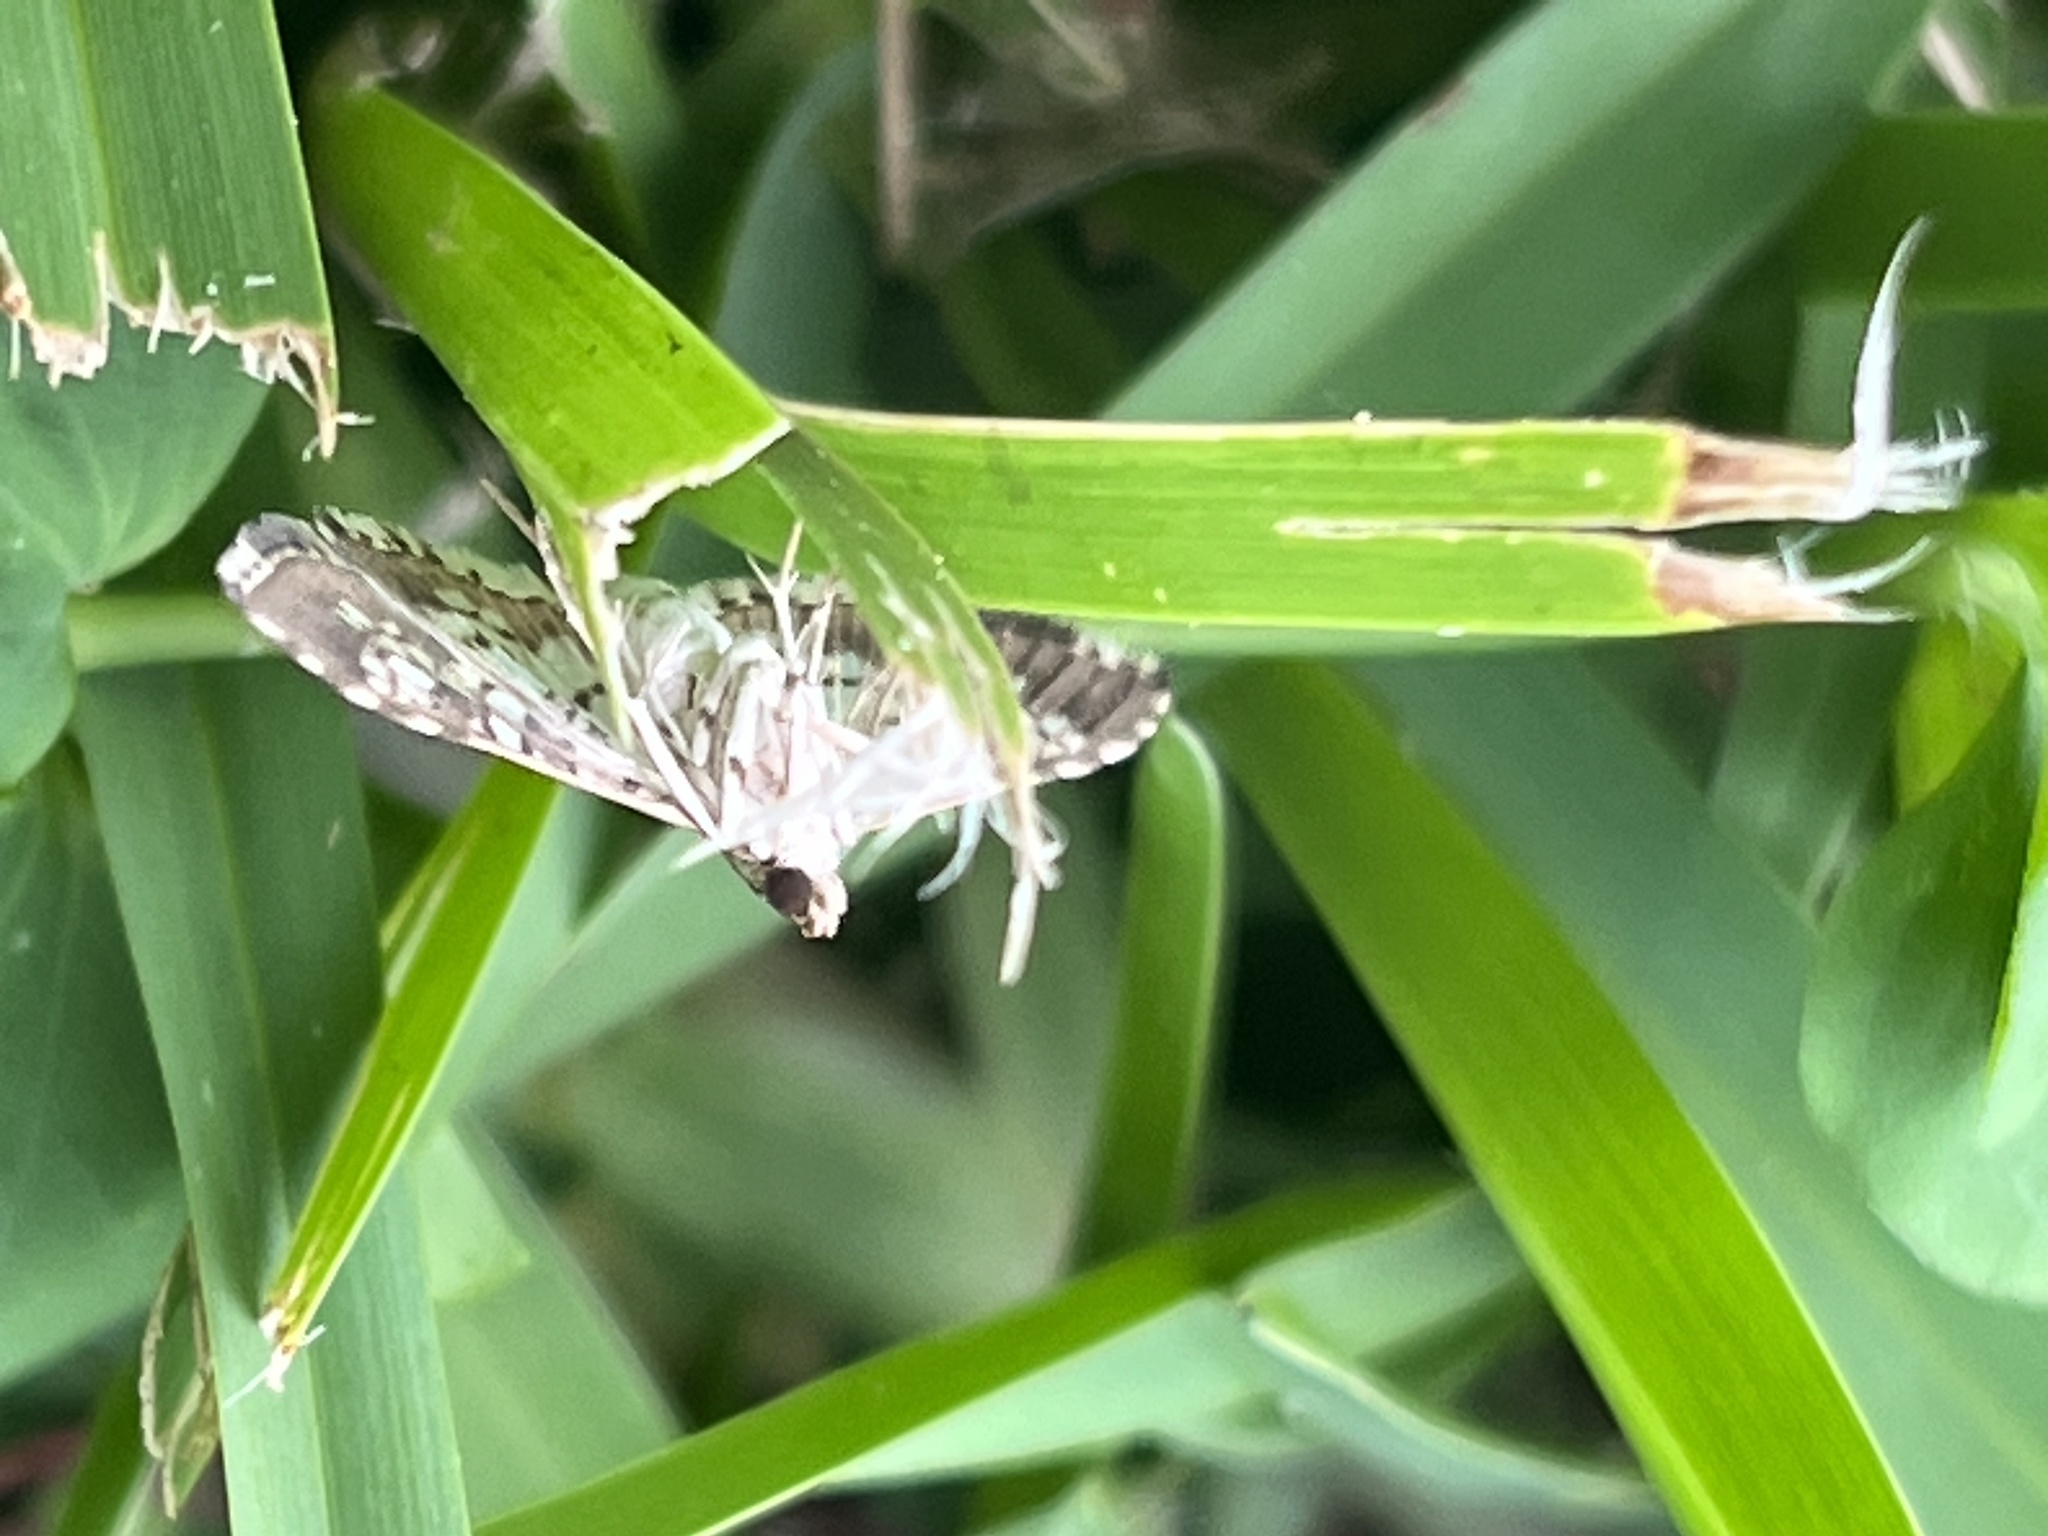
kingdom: Animalia
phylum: Arthropoda
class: Insecta
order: Lepidoptera
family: Crambidae
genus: Samea
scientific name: Samea ecclesialis
